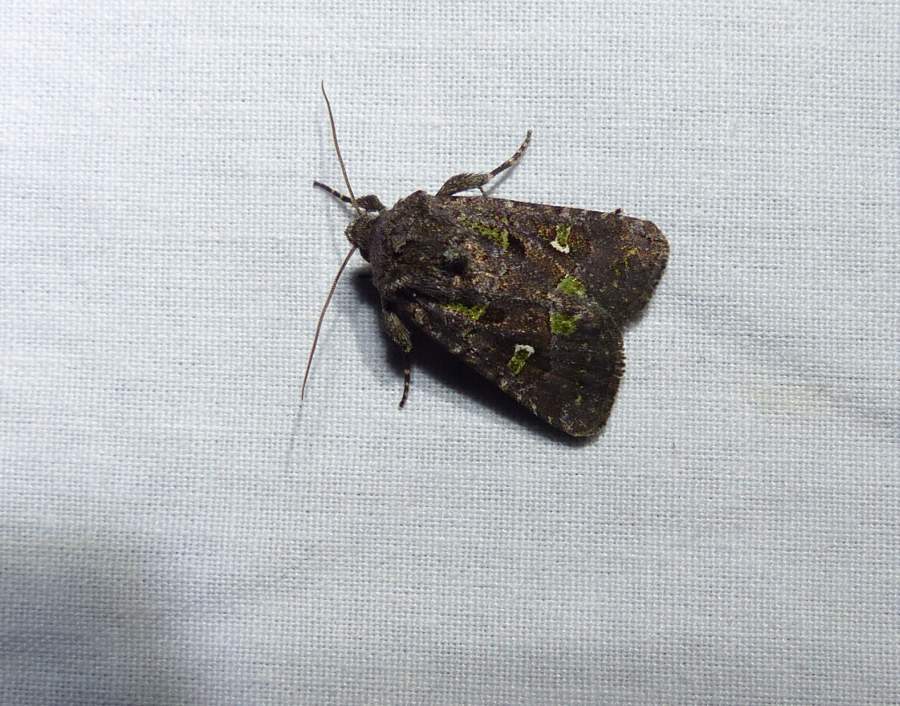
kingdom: Animalia
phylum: Arthropoda
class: Insecta
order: Lepidoptera
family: Noctuidae
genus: Lacinipolia
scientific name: Lacinipolia renigera
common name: Kidney-spotted minor
